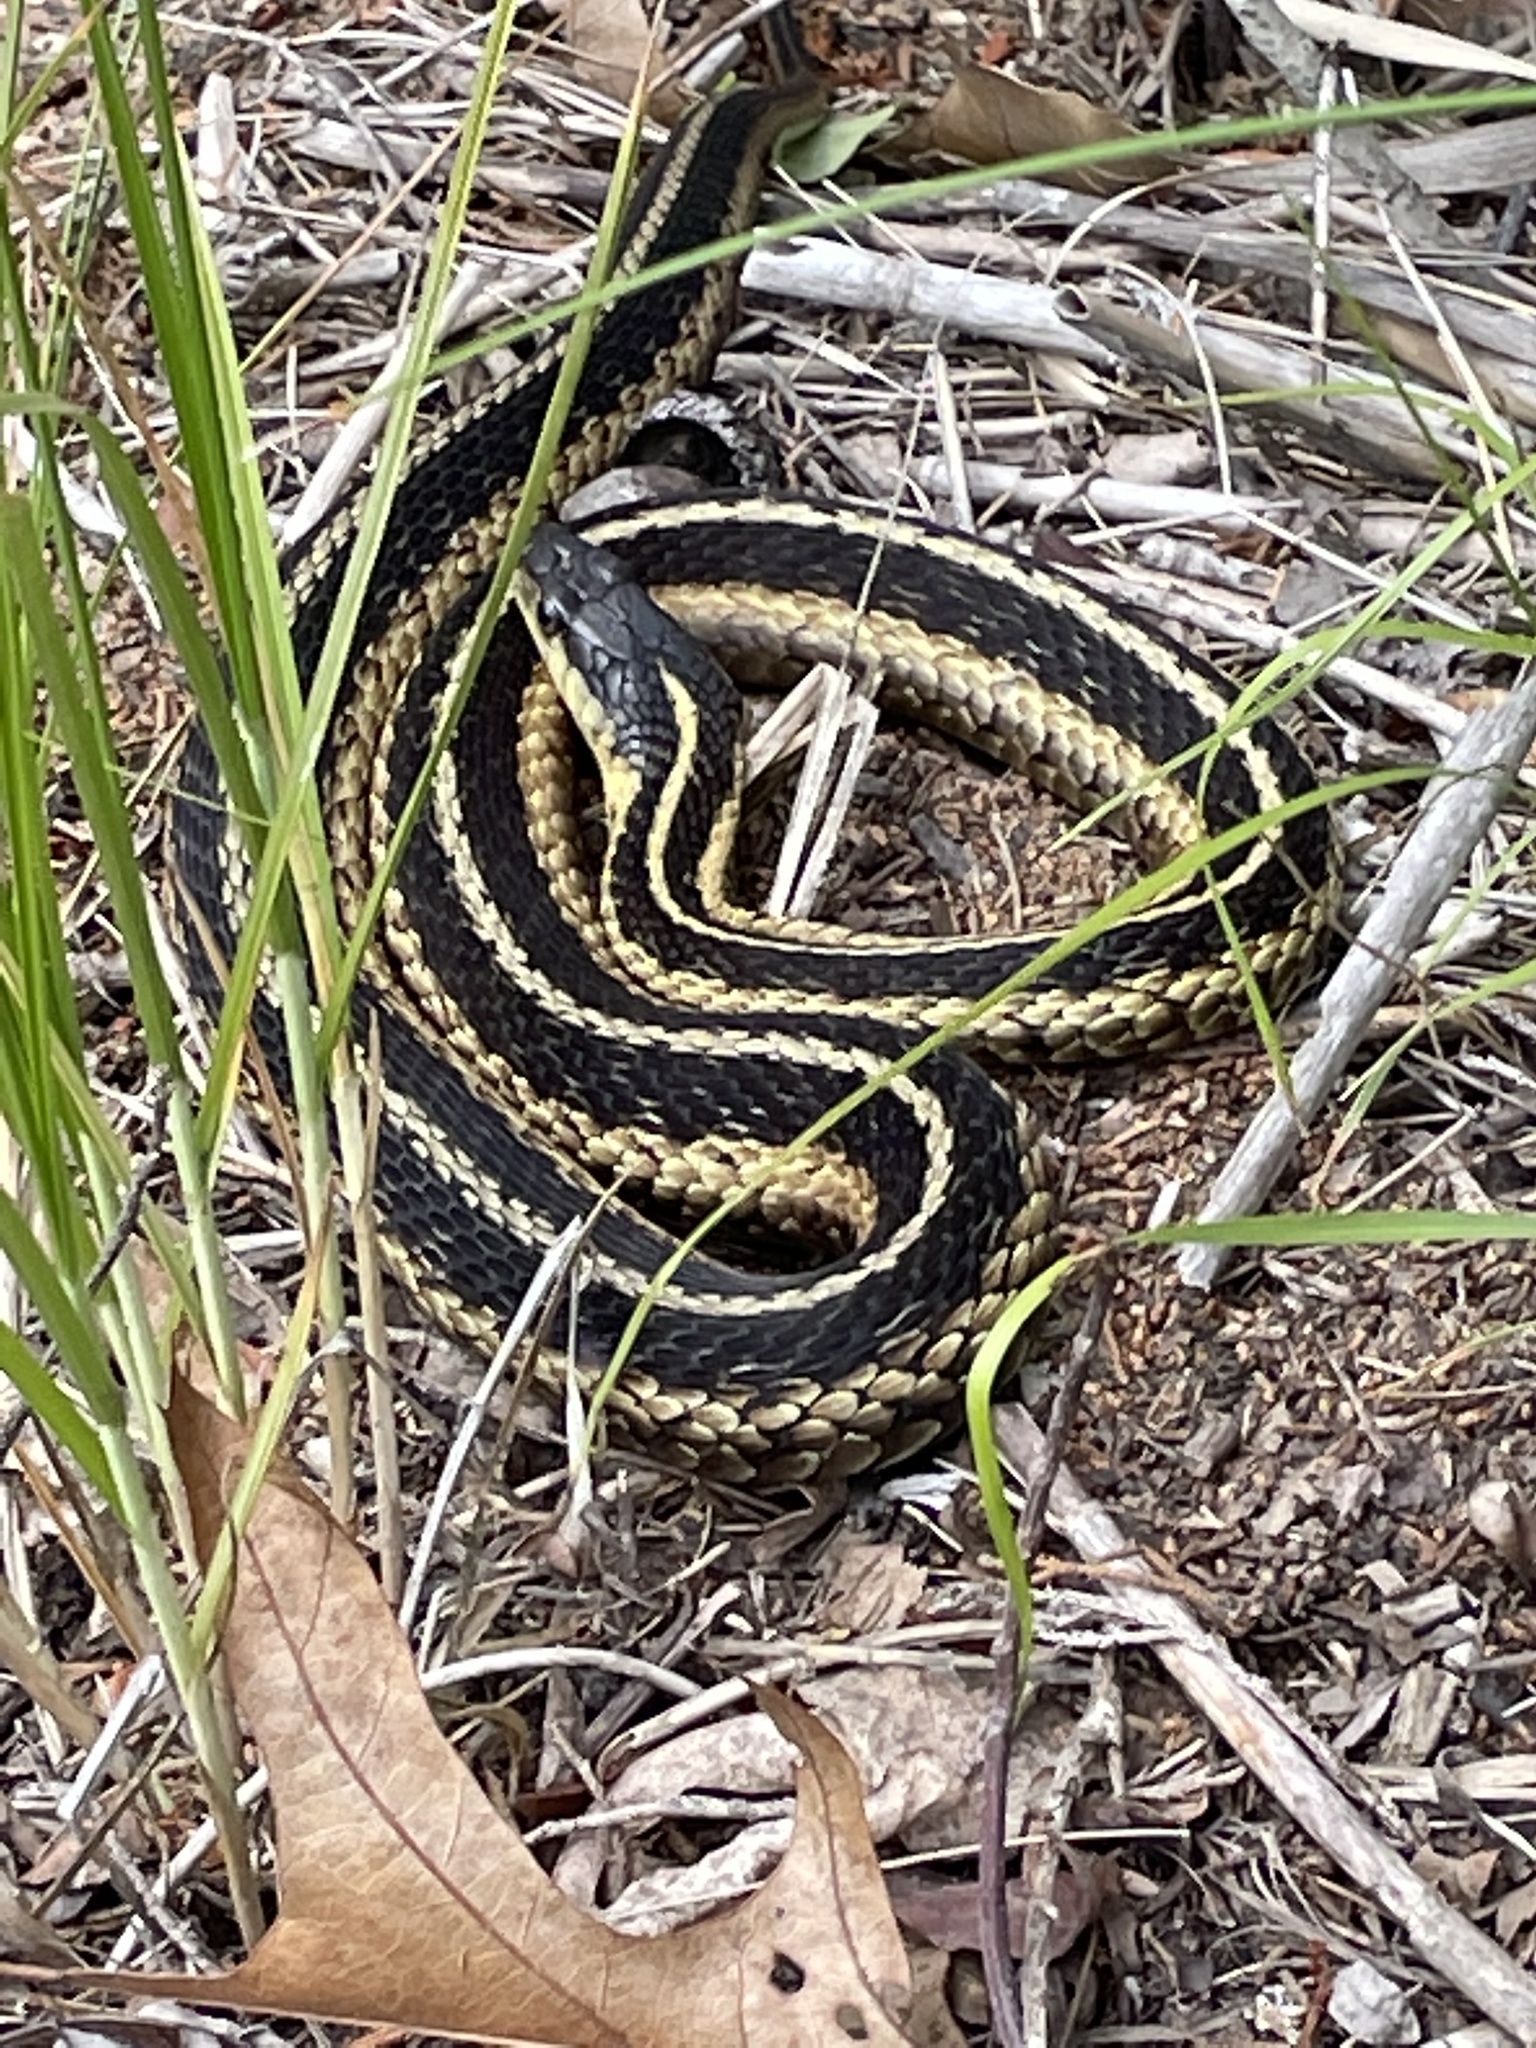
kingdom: Animalia
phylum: Chordata
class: Squamata
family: Colubridae
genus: Thamnophis
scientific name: Thamnophis sirtalis
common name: Common garter snake
